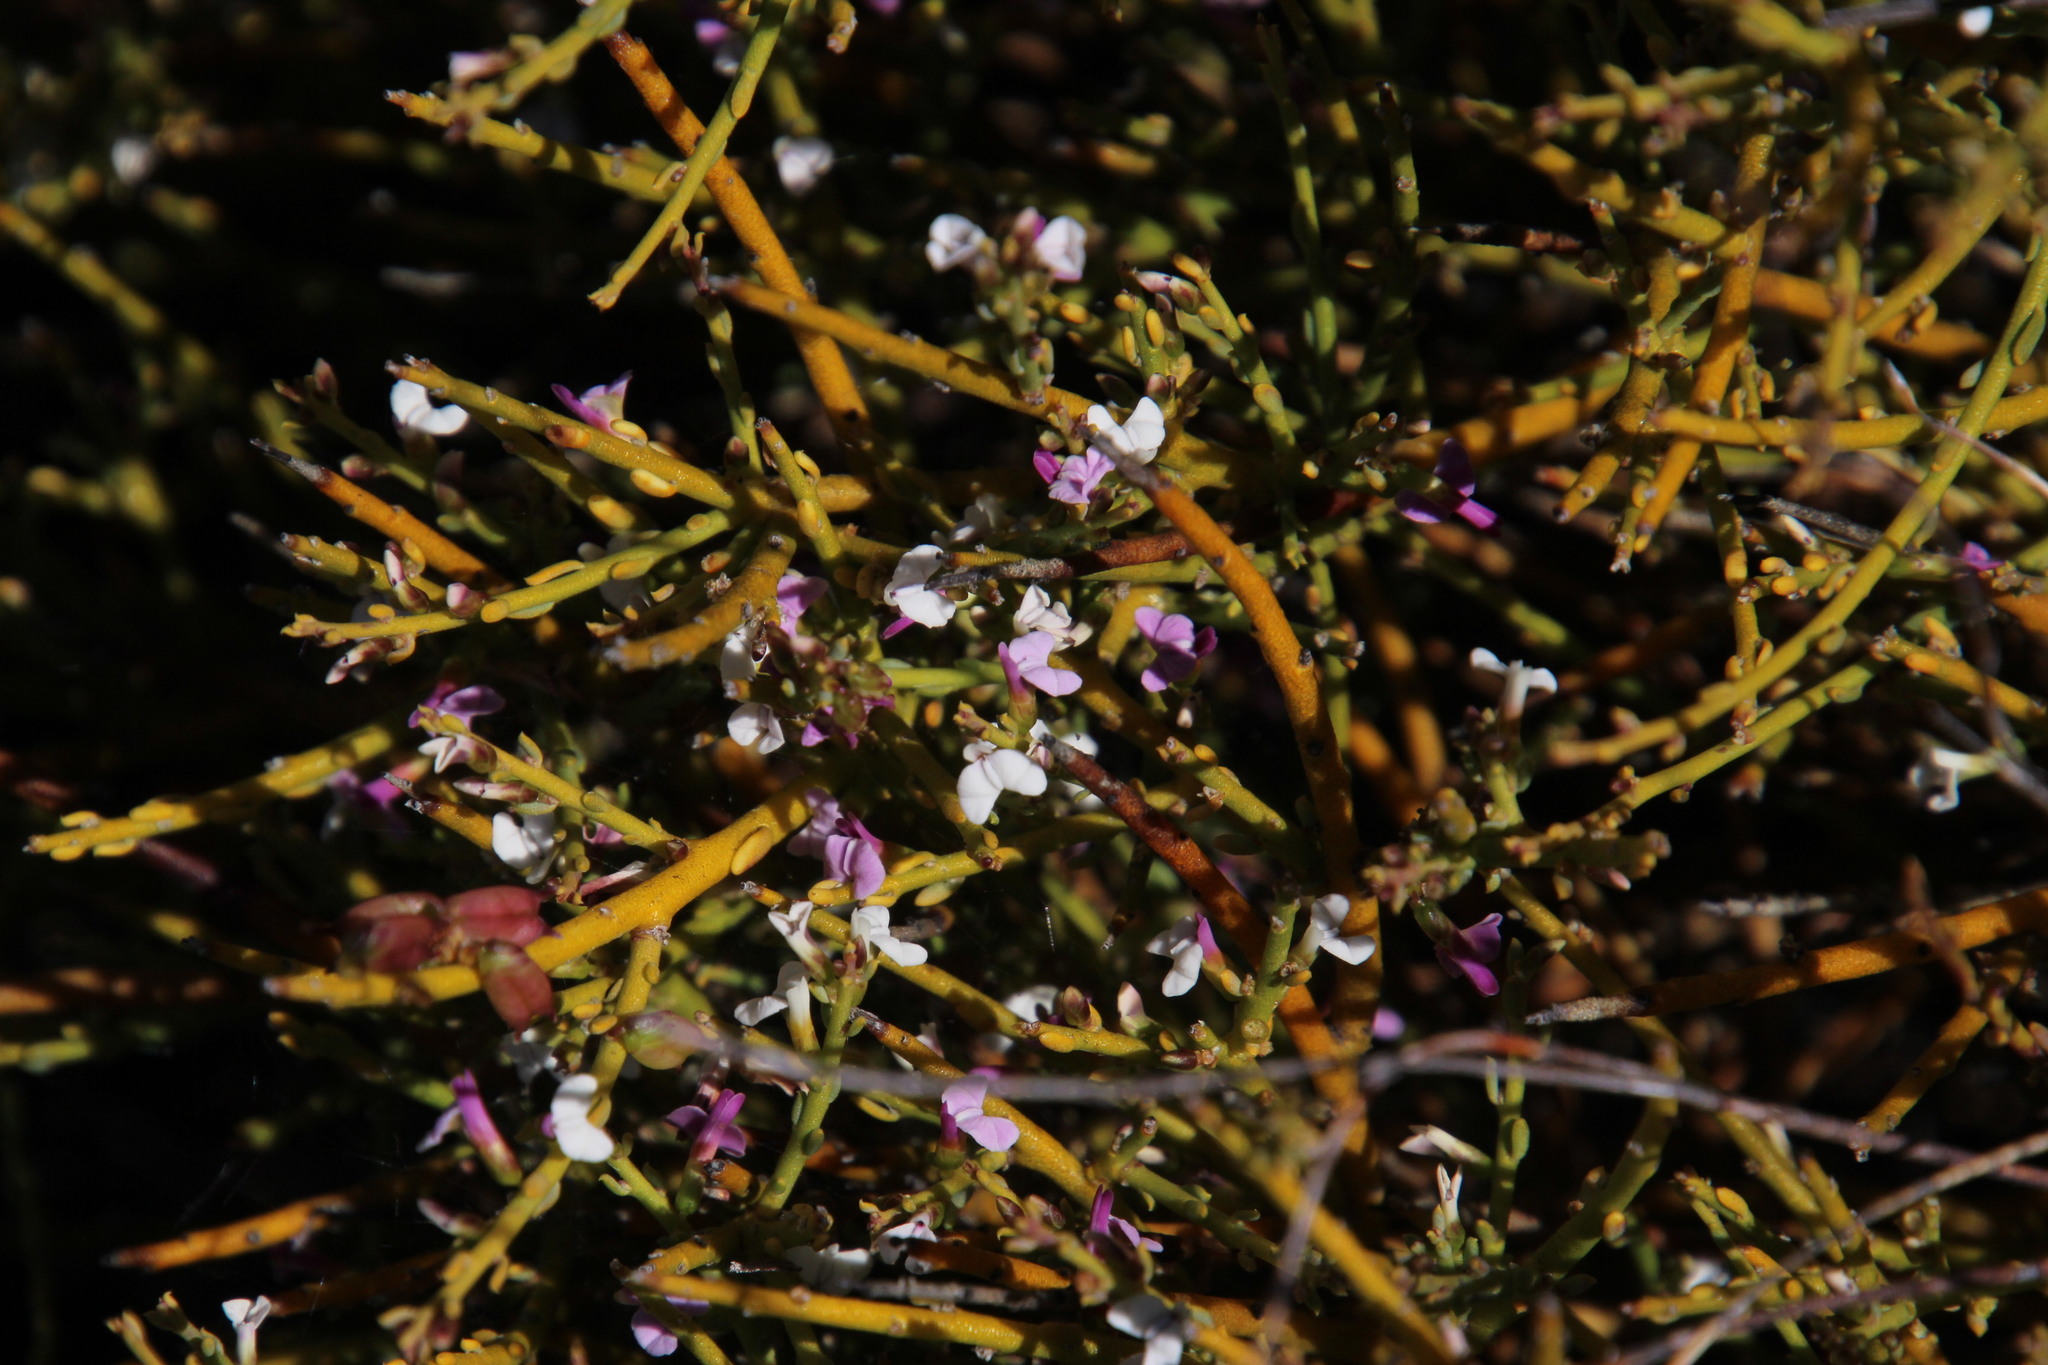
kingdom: Plantae
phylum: Tracheophyta
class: Magnoliopsida
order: Fabales
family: Polygalaceae
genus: Muraltia
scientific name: Muraltia rigida
